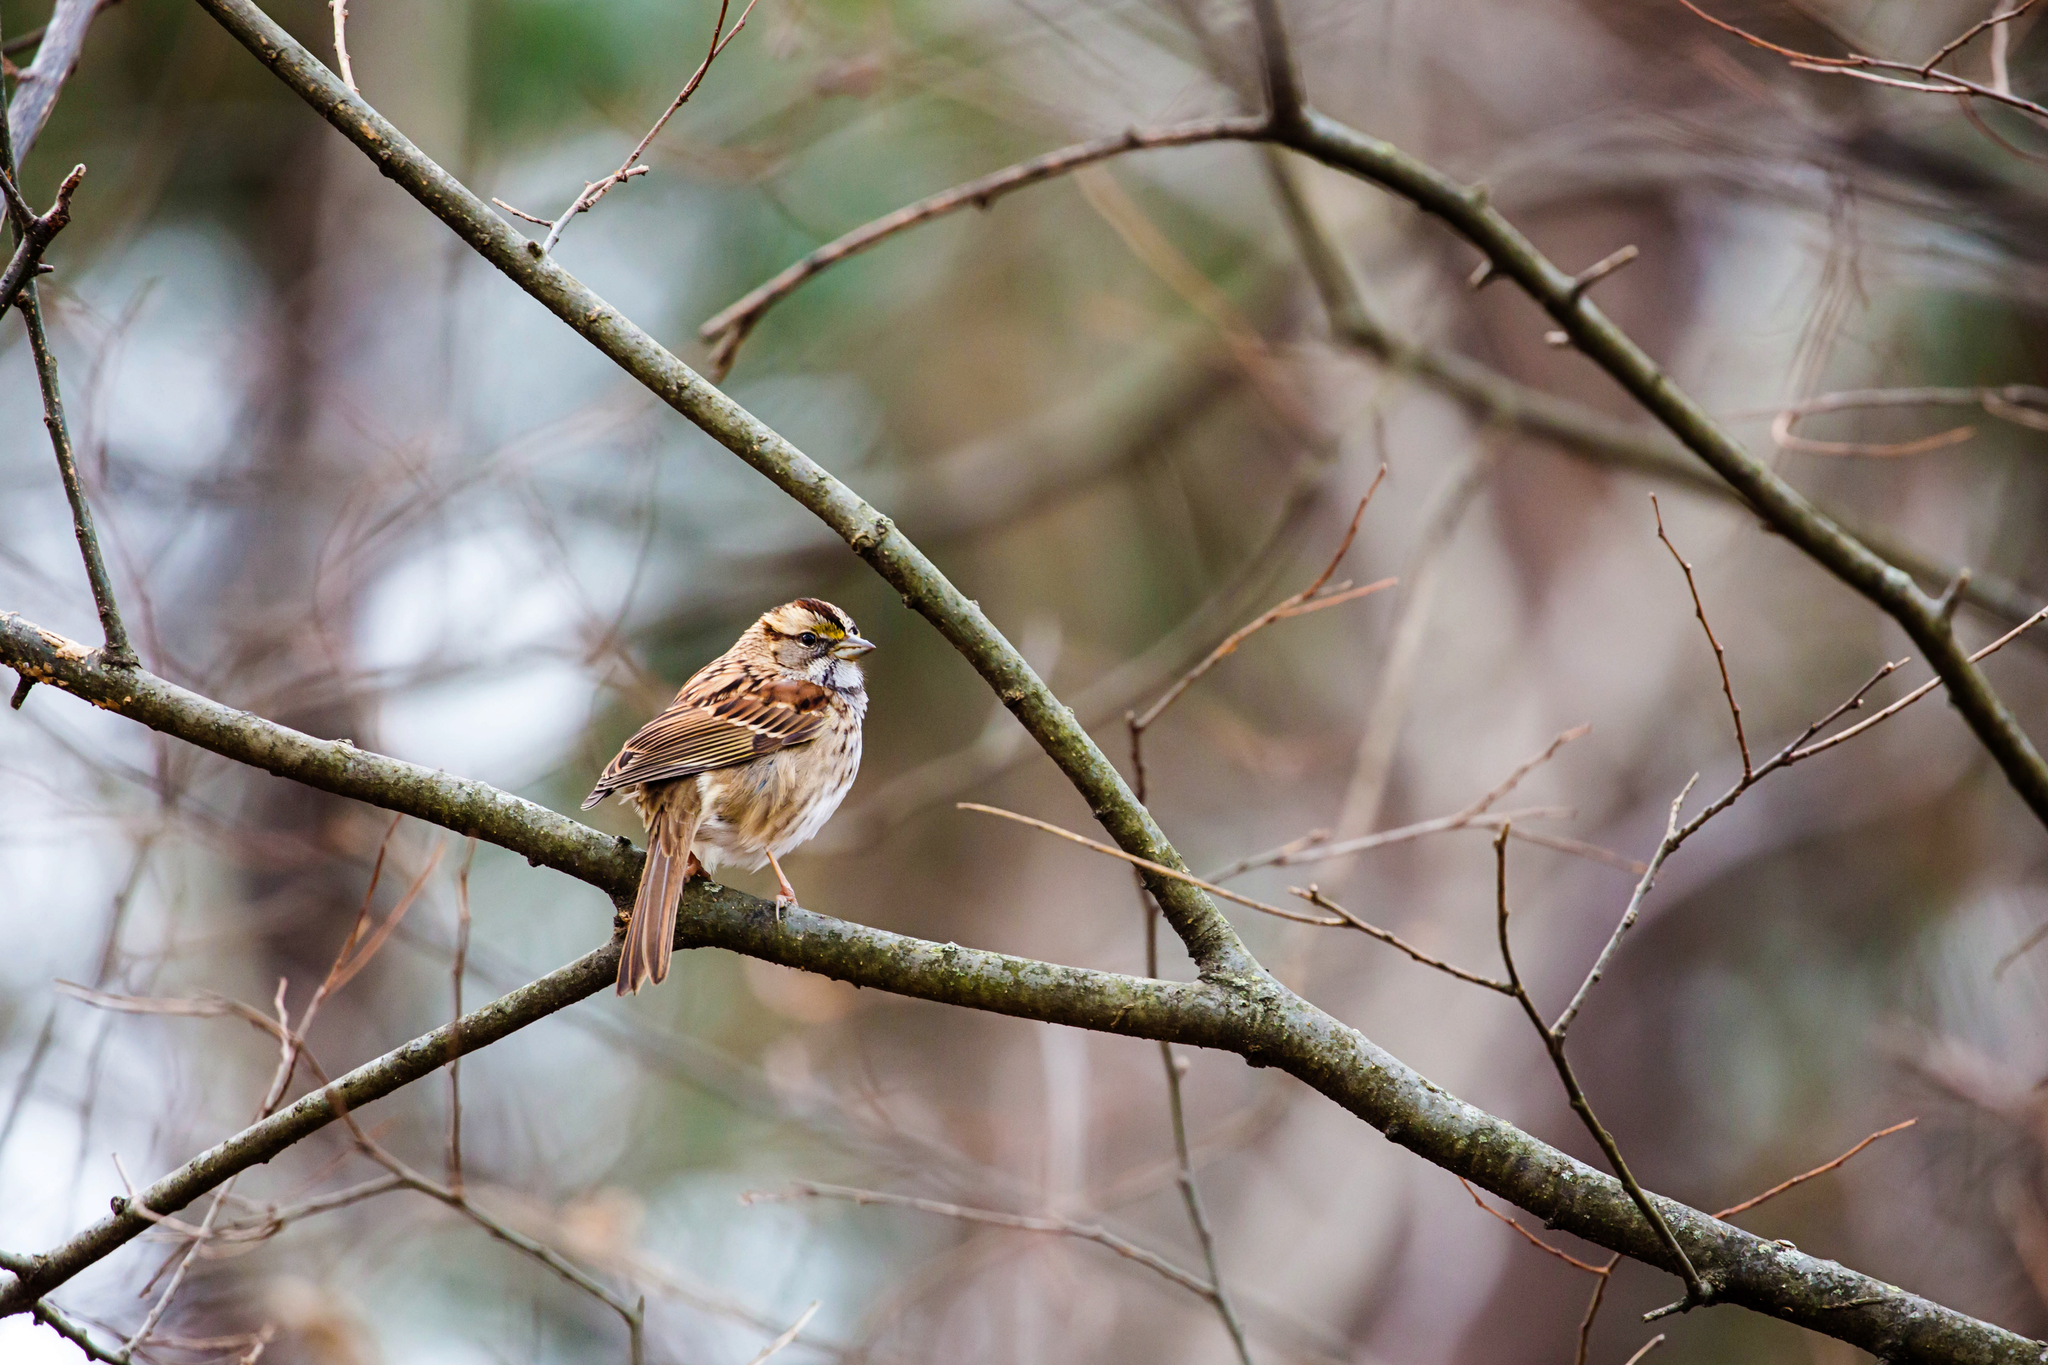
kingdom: Animalia
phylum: Chordata
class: Aves
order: Passeriformes
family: Passerellidae
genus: Zonotrichia
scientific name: Zonotrichia albicollis
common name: White-throated sparrow
